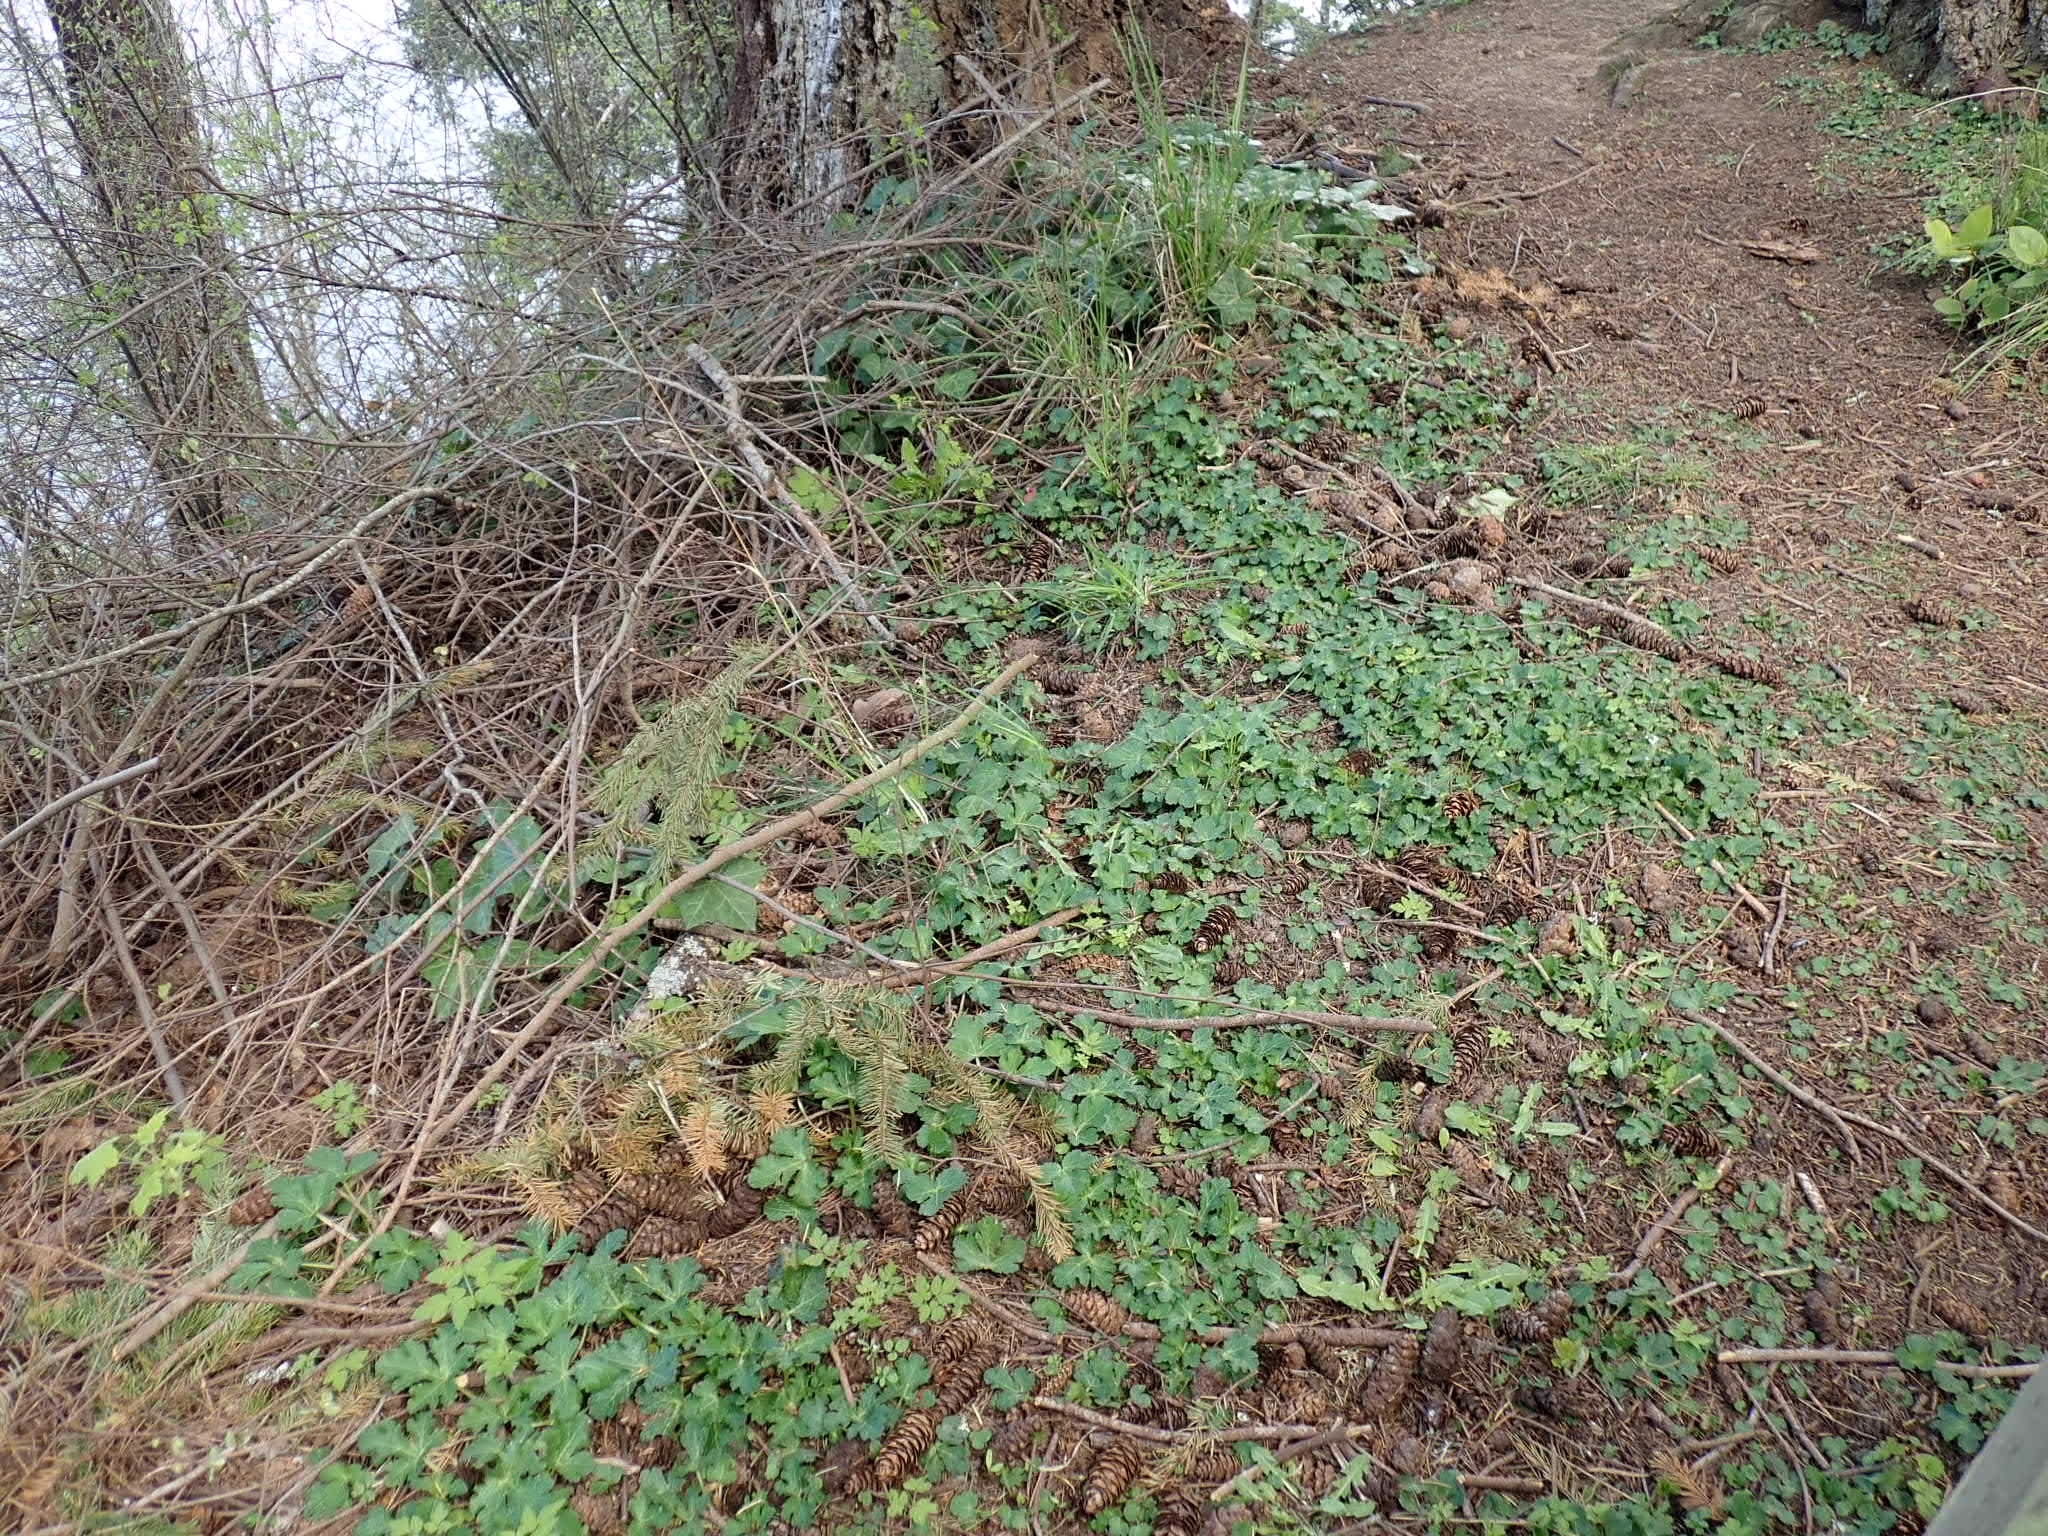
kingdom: Plantae
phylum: Tracheophyta
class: Magnoliopsida
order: Apiales
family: Apiaceae
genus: Sanicula
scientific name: Sanicula crassicaulis
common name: Western snakeroot
